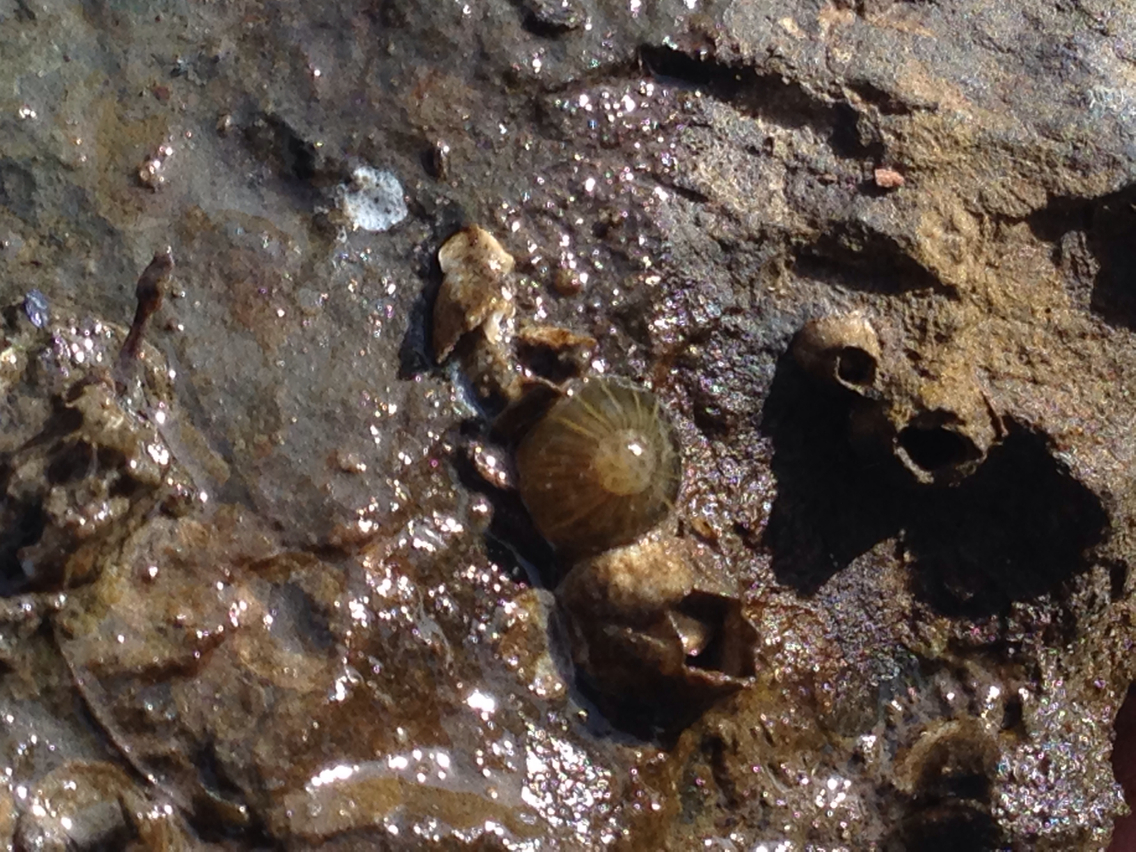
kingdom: Animalia
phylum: Cnidaria
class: Anthozoa
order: Actiniaria
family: Diadumenidae
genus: Diadumene
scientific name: Diadumene lineata
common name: Orange-striped anemone
